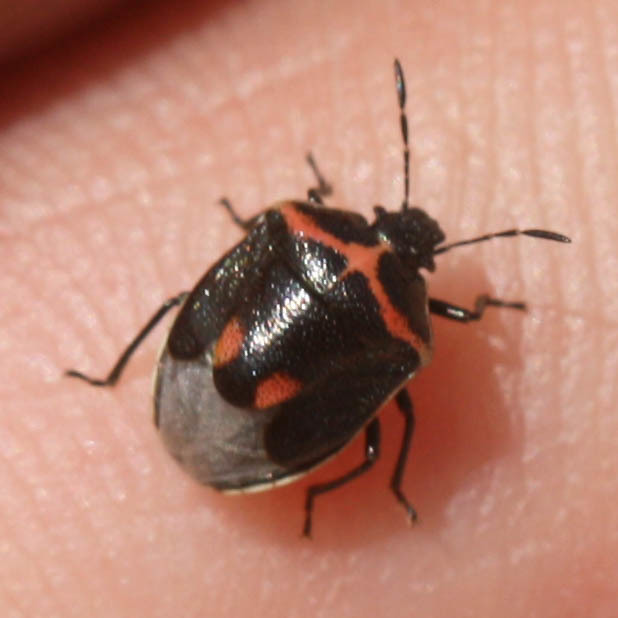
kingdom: Animalia
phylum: Arthropoda
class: Insecta
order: Hemiptera
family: Pentatomidae
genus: Cosmopepla
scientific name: Cosmopepla lintneriana
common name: Twice-stabbed stink bug
